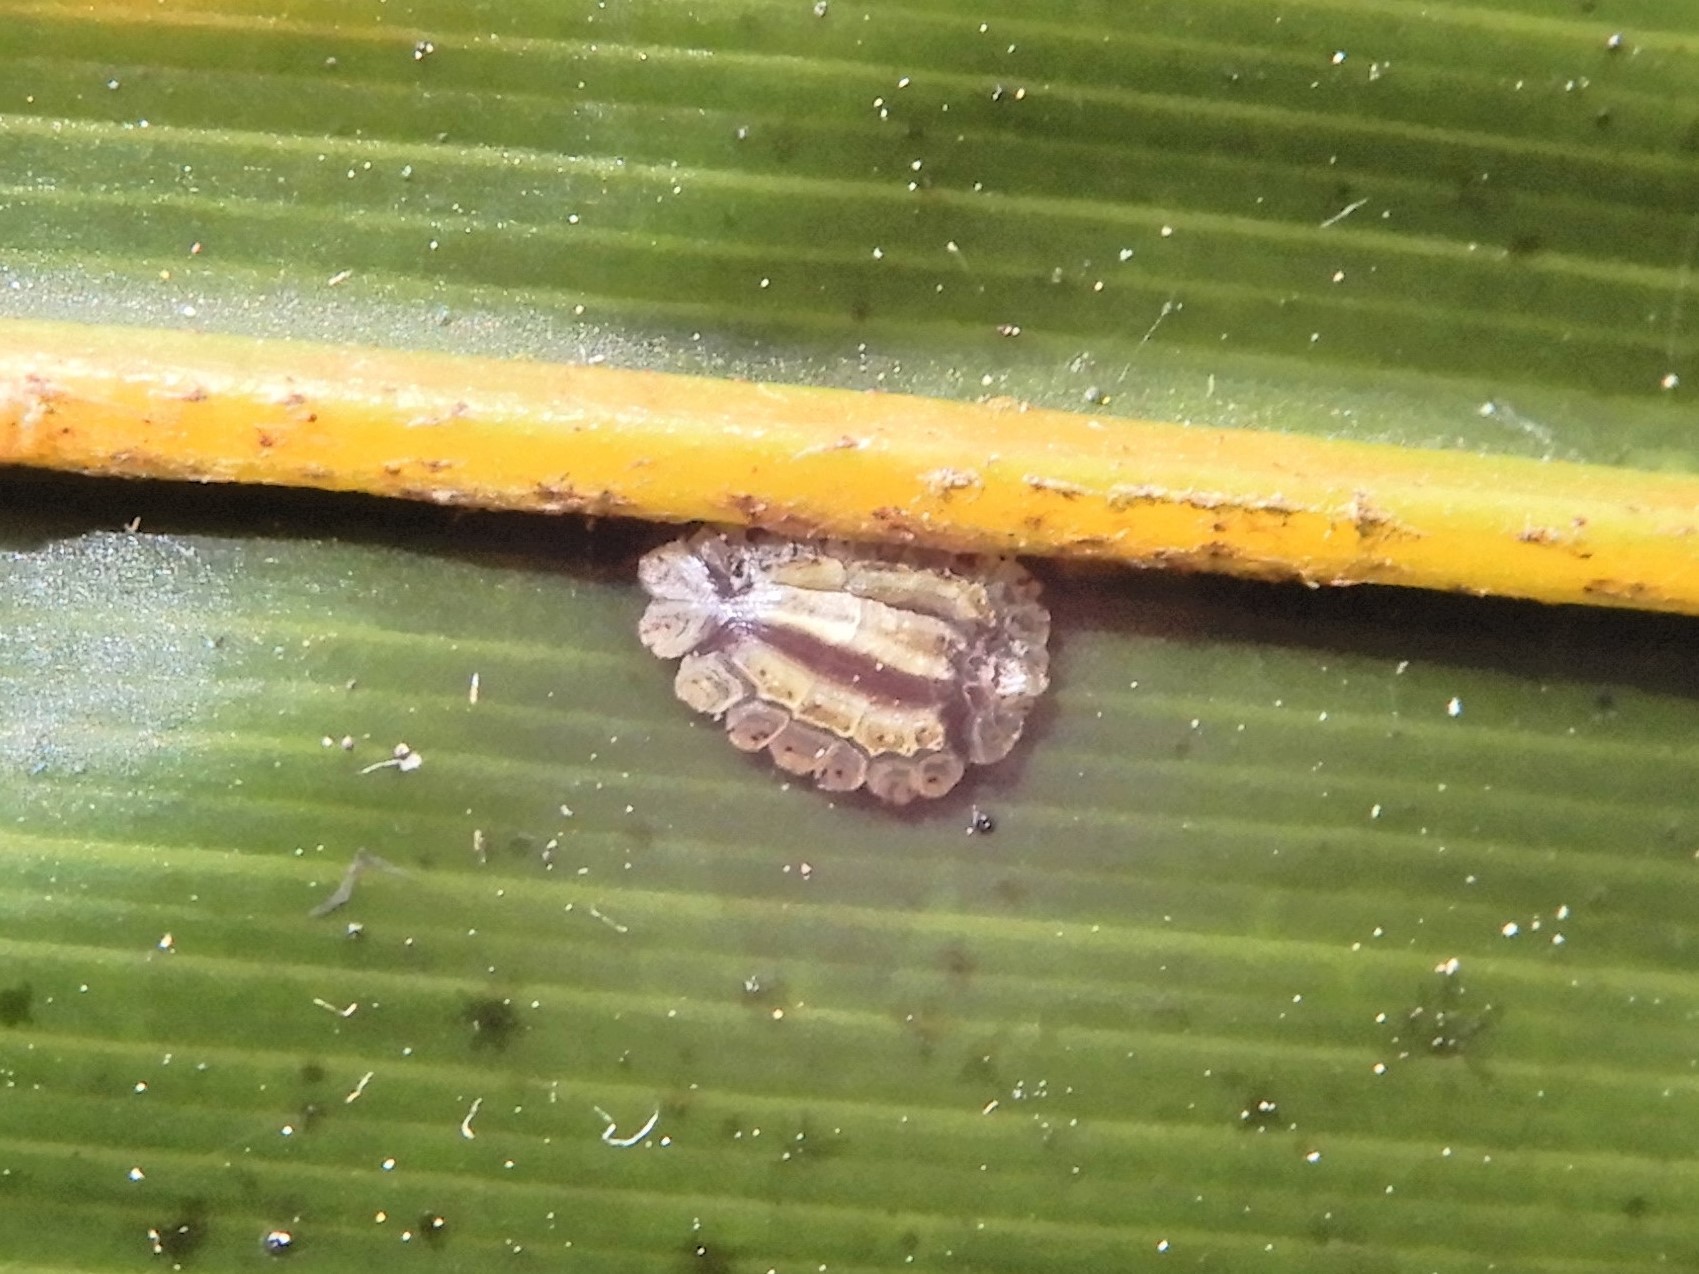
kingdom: Animalia
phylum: Arthropoda
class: Insecta
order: Hemiptera
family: Coccidae
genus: Plumichiton
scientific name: Plumichiton nikau
